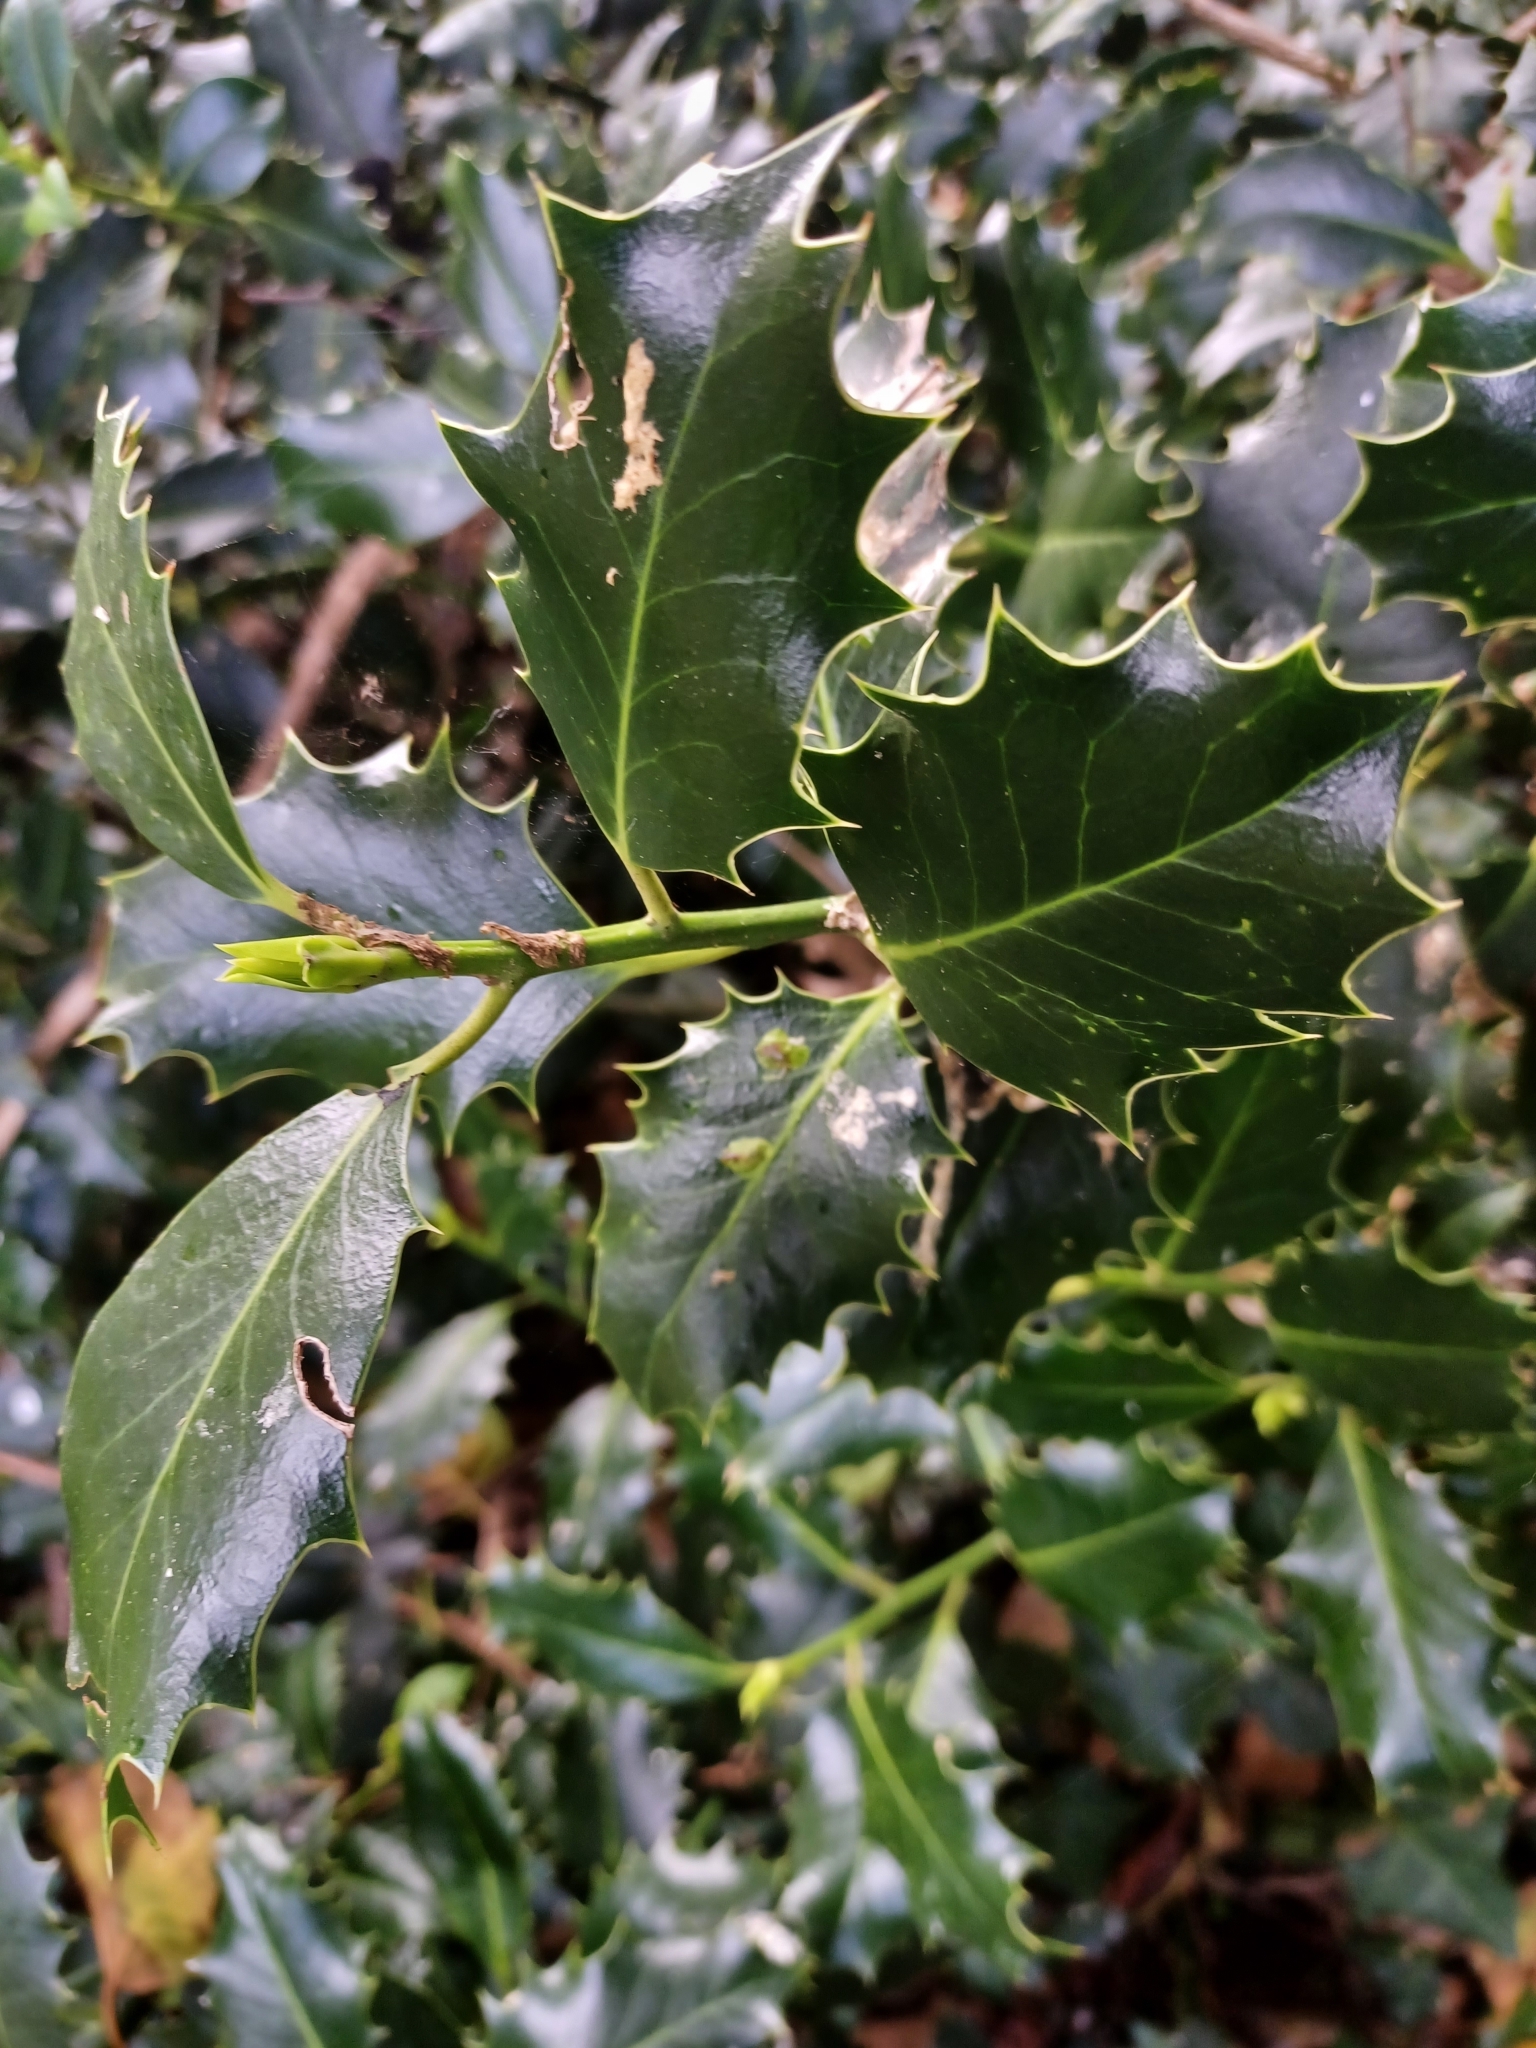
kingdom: Animalia
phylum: Arthropoda
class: Insecta
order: Diptera
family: Agromyzidae
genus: Phytomyza
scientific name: Phytomyza ilicis
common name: Holly leafminer
